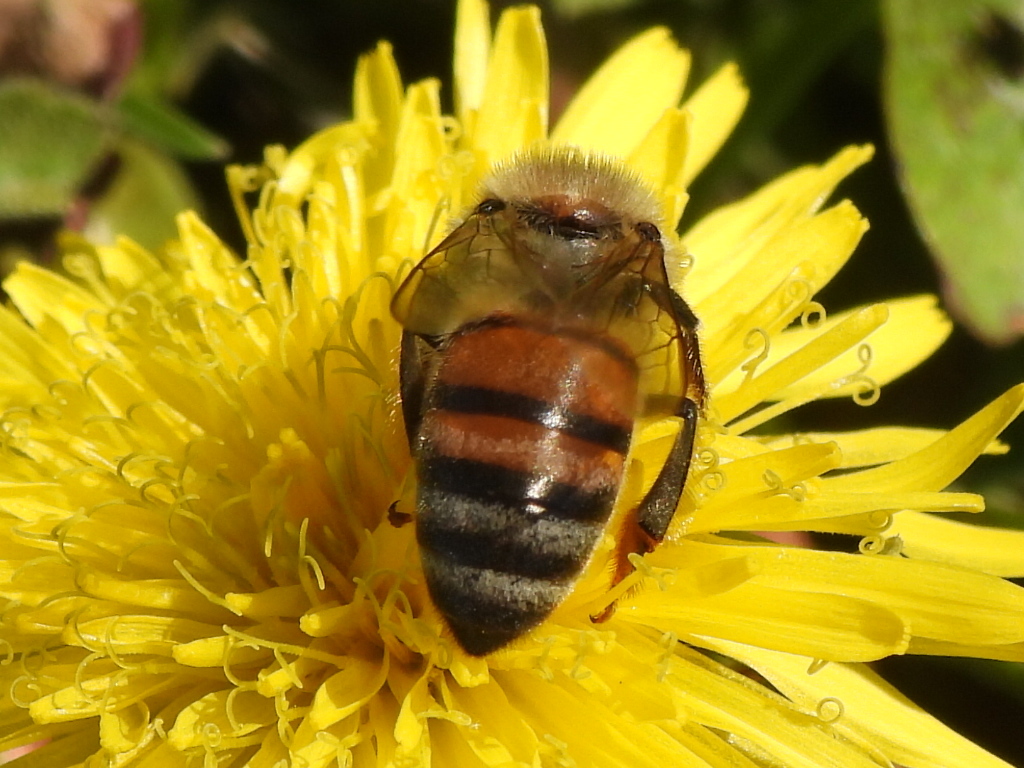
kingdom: Animalia
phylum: Arthropoda
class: Insecta
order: Hymenoptera
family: Apidae
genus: Apis
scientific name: Apis mellifera
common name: Honey bee
